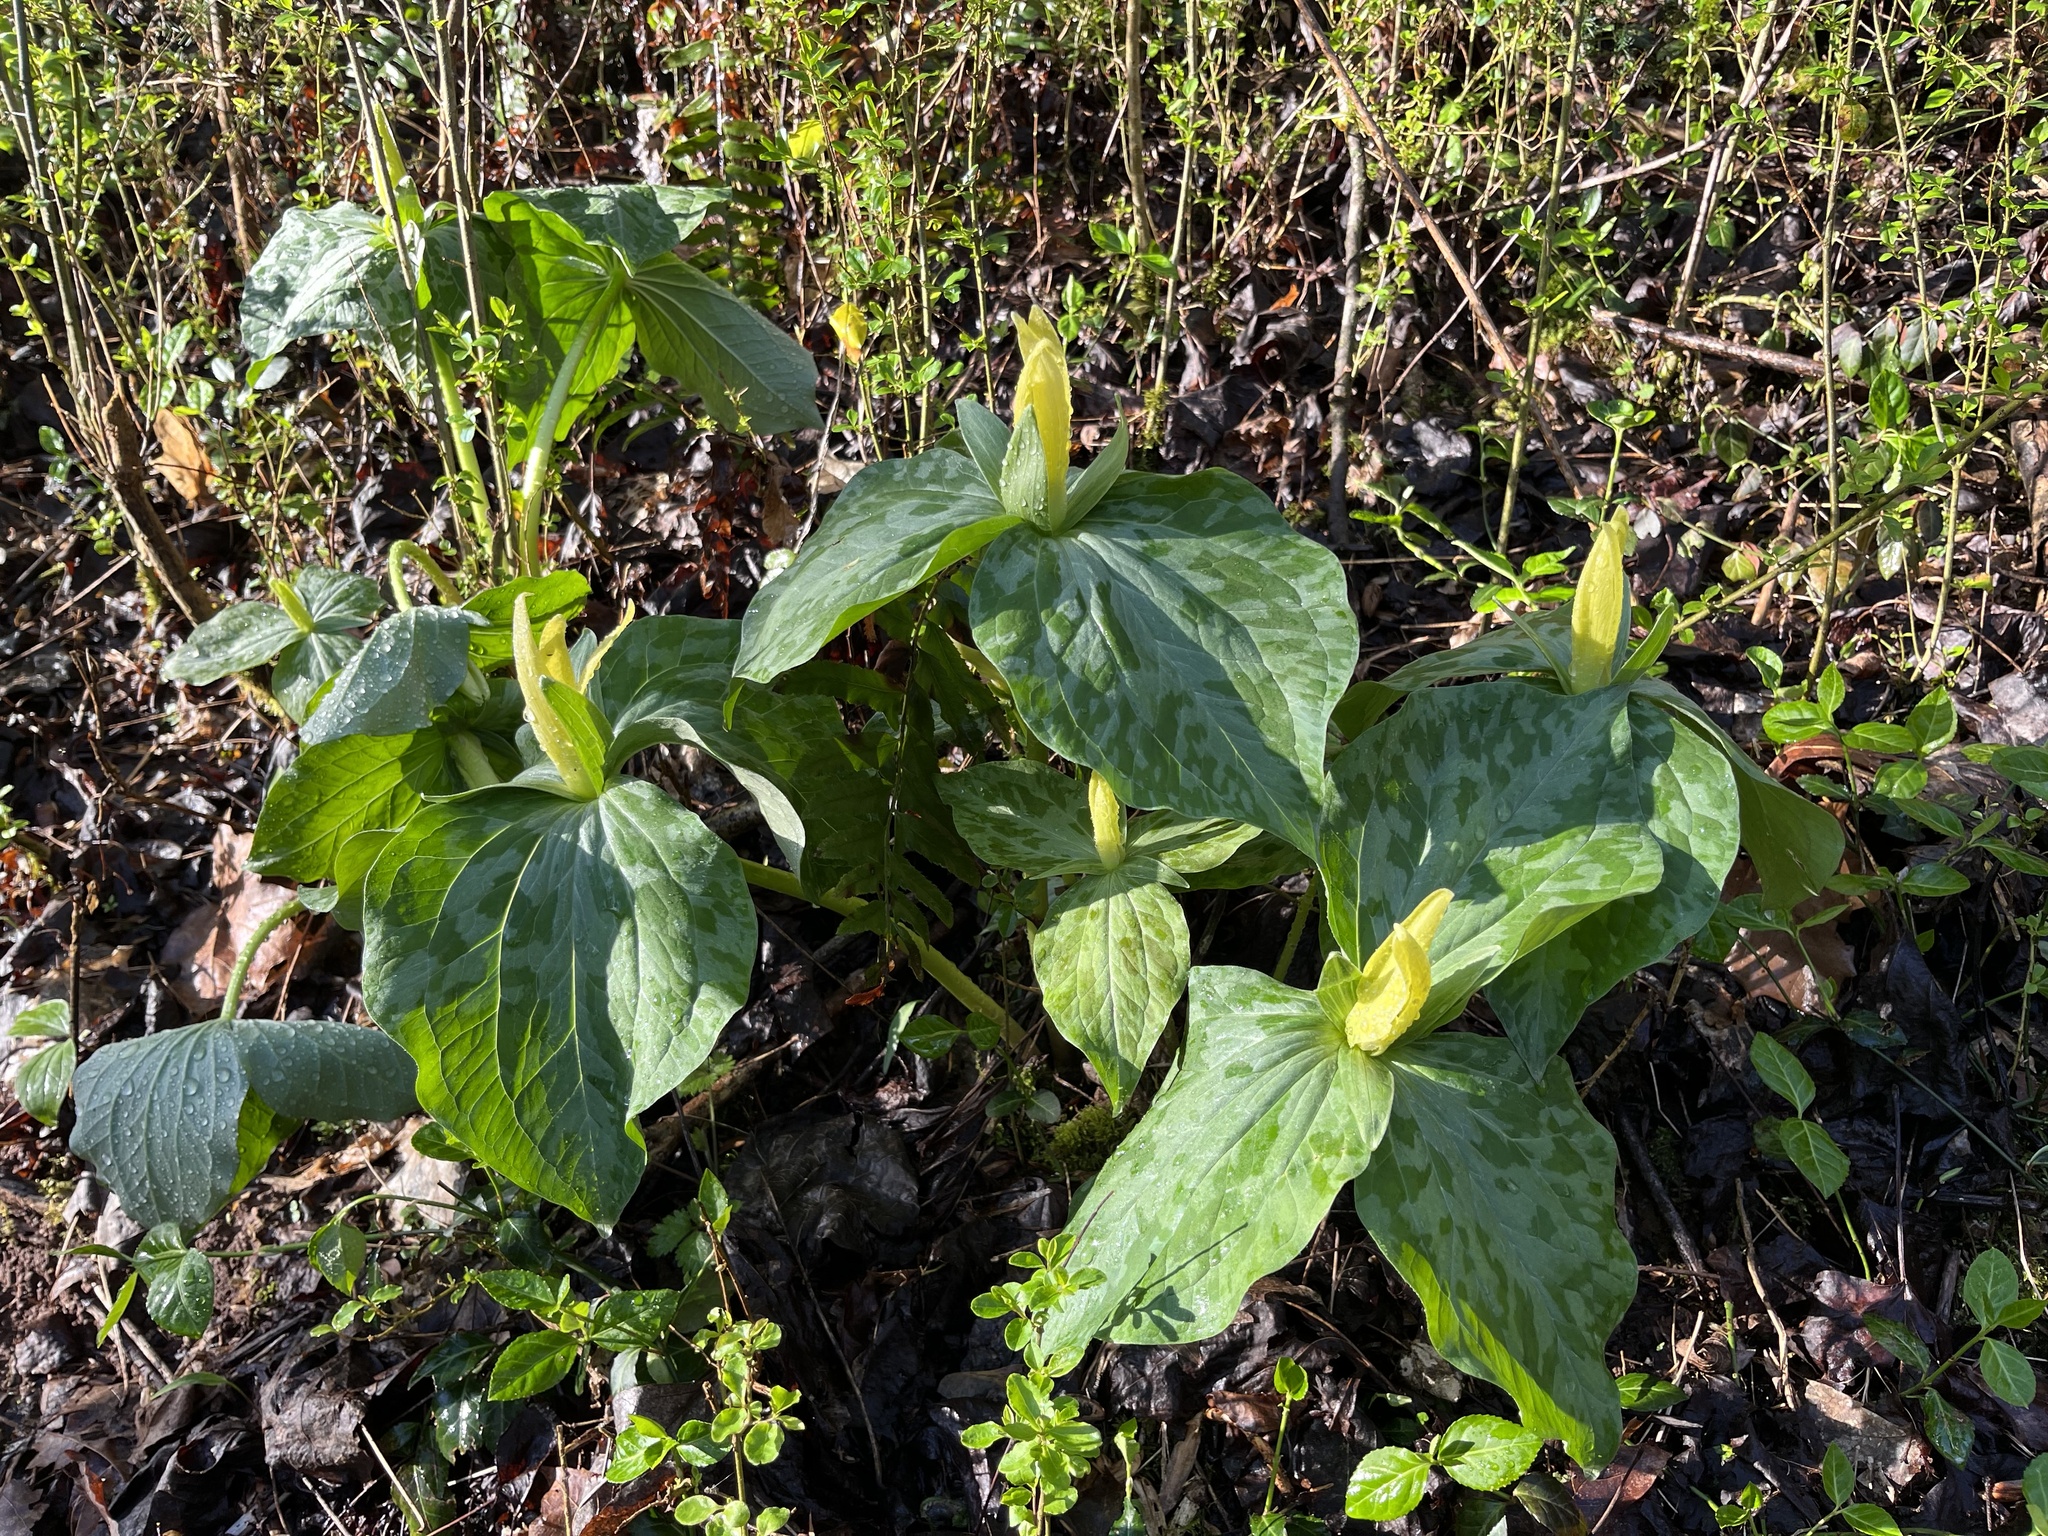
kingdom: Plantae
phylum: Tracheophyta
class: Liliopsida
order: Liliales
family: Melanthiaceae
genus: Trillium
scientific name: Trillium luteum
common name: Wax trillium
